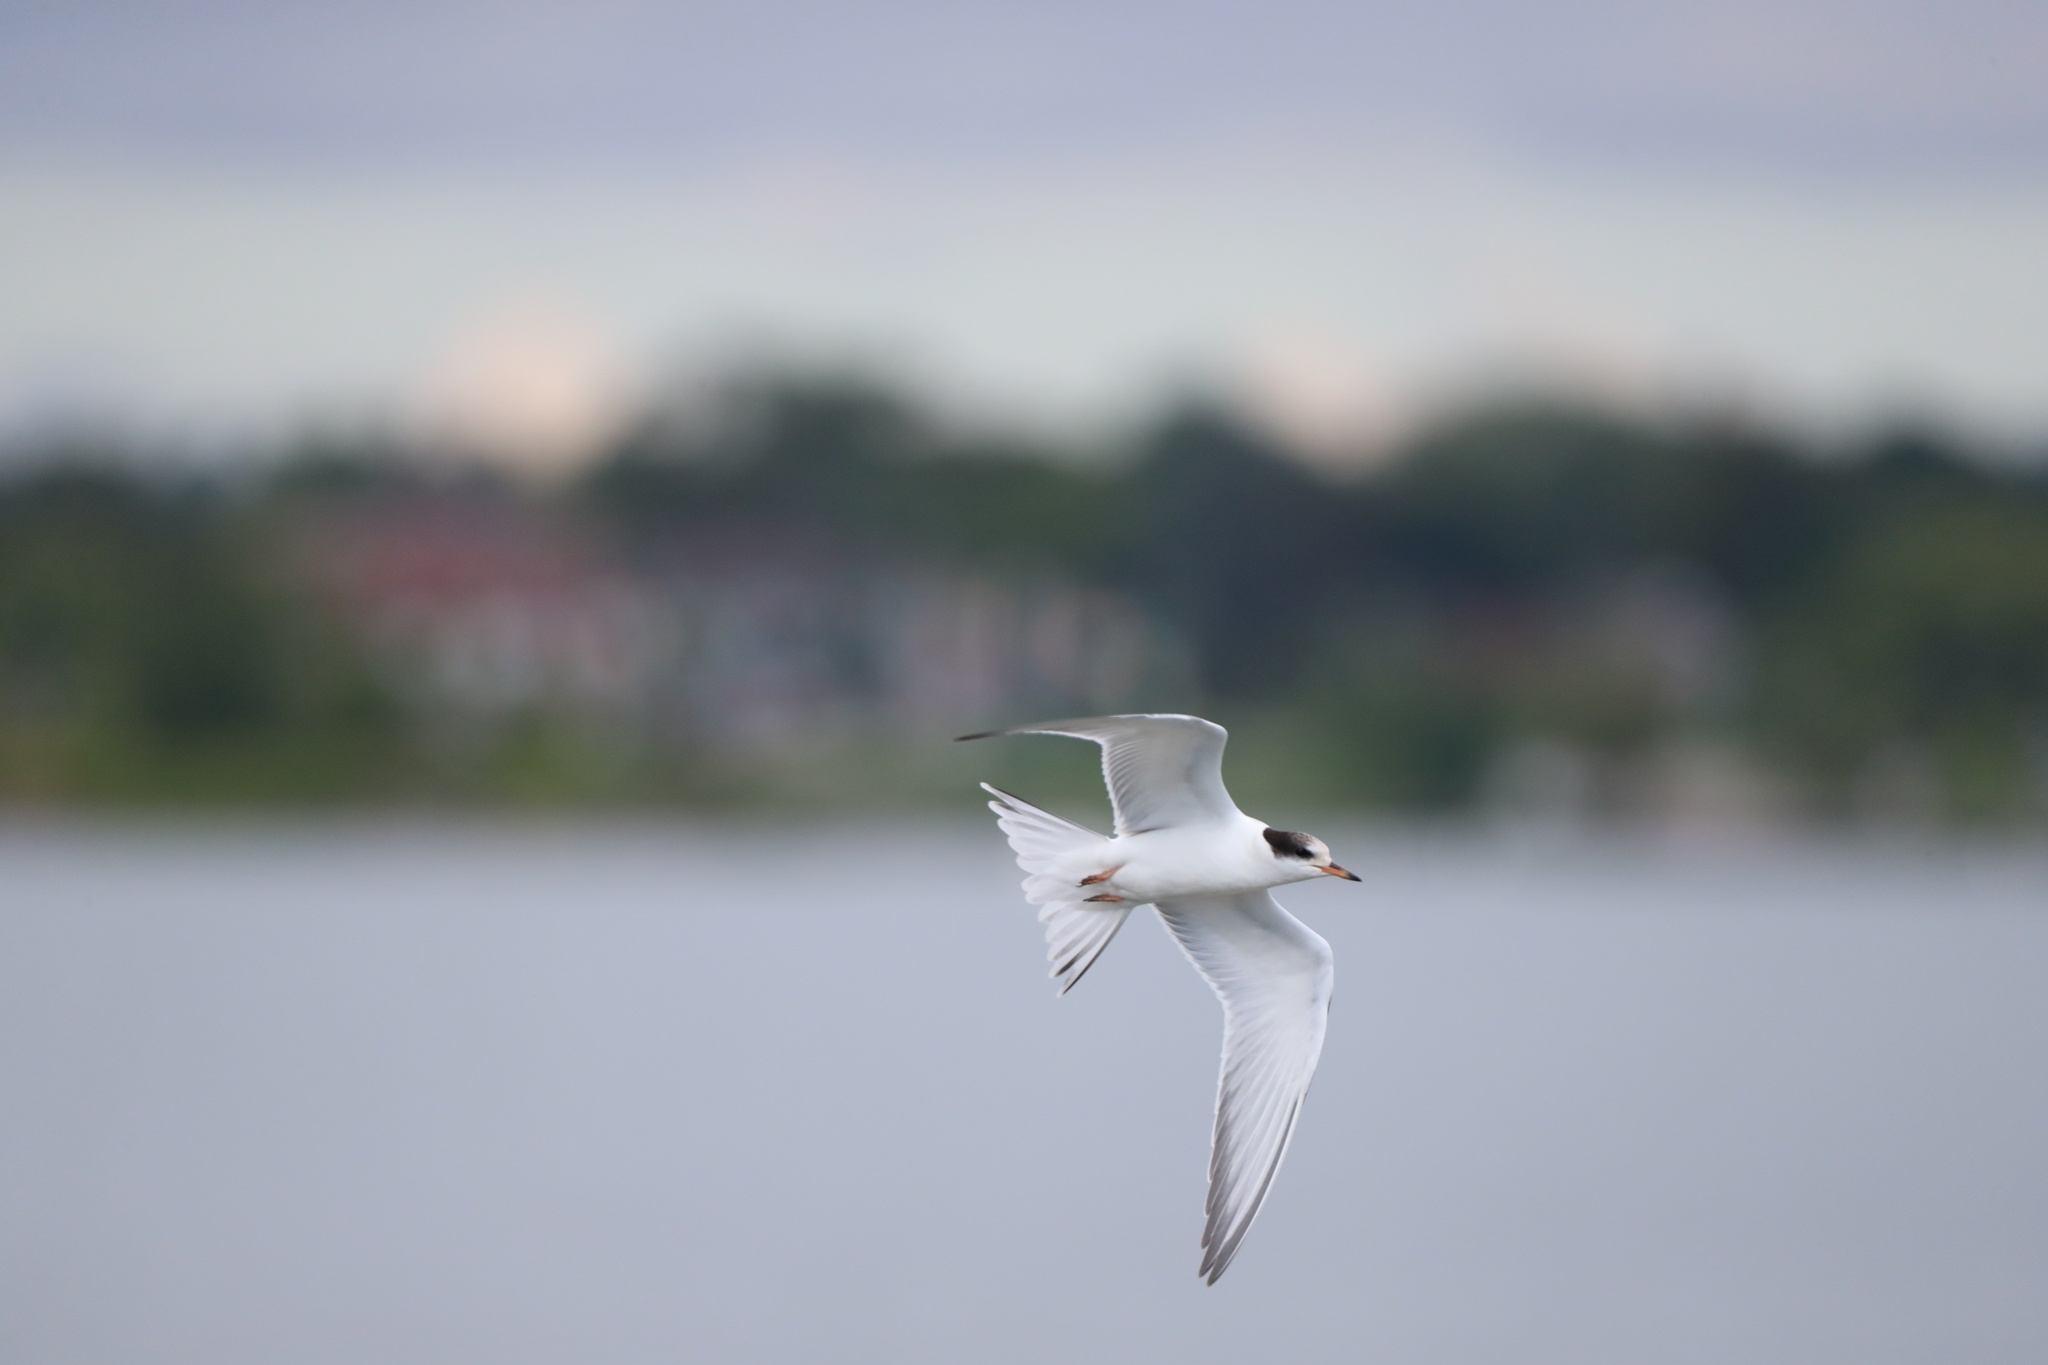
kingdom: Animalia
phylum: Chordata
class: Aves
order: Charadriiformes
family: Laridae
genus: Sterna
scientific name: Sterna hirundo
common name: Common tern
